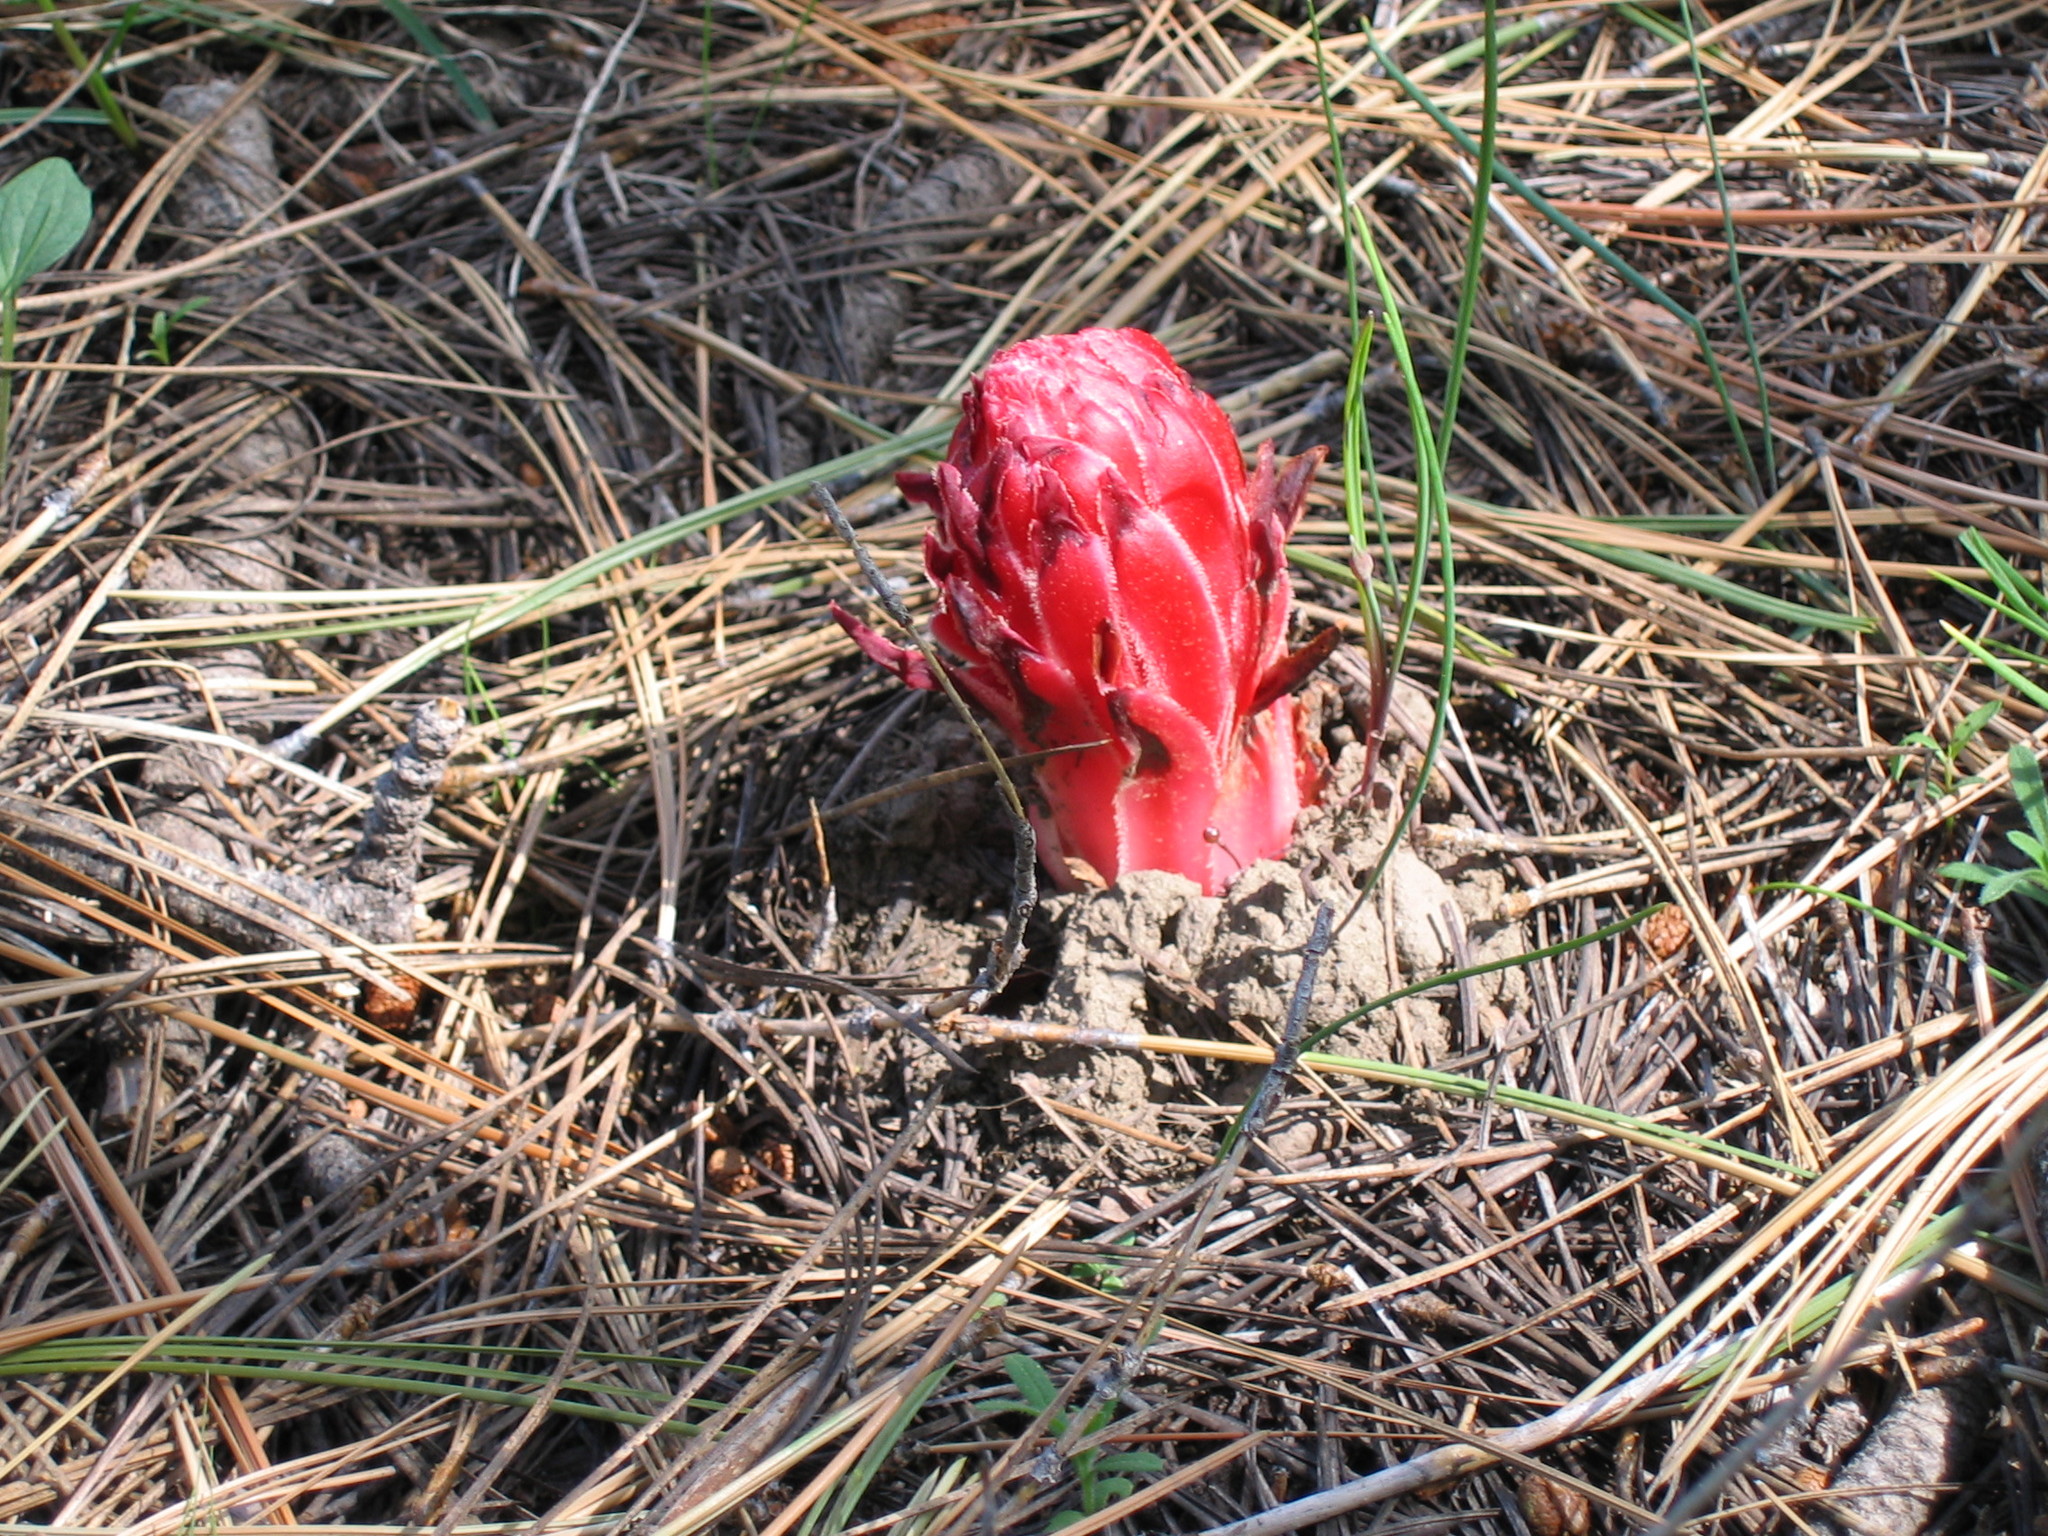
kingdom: Plantae
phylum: Tracheophyta
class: Magnoliopsida
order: Ericales
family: Ericaceae
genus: Sarcodes
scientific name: Sarcodes sanguinea
